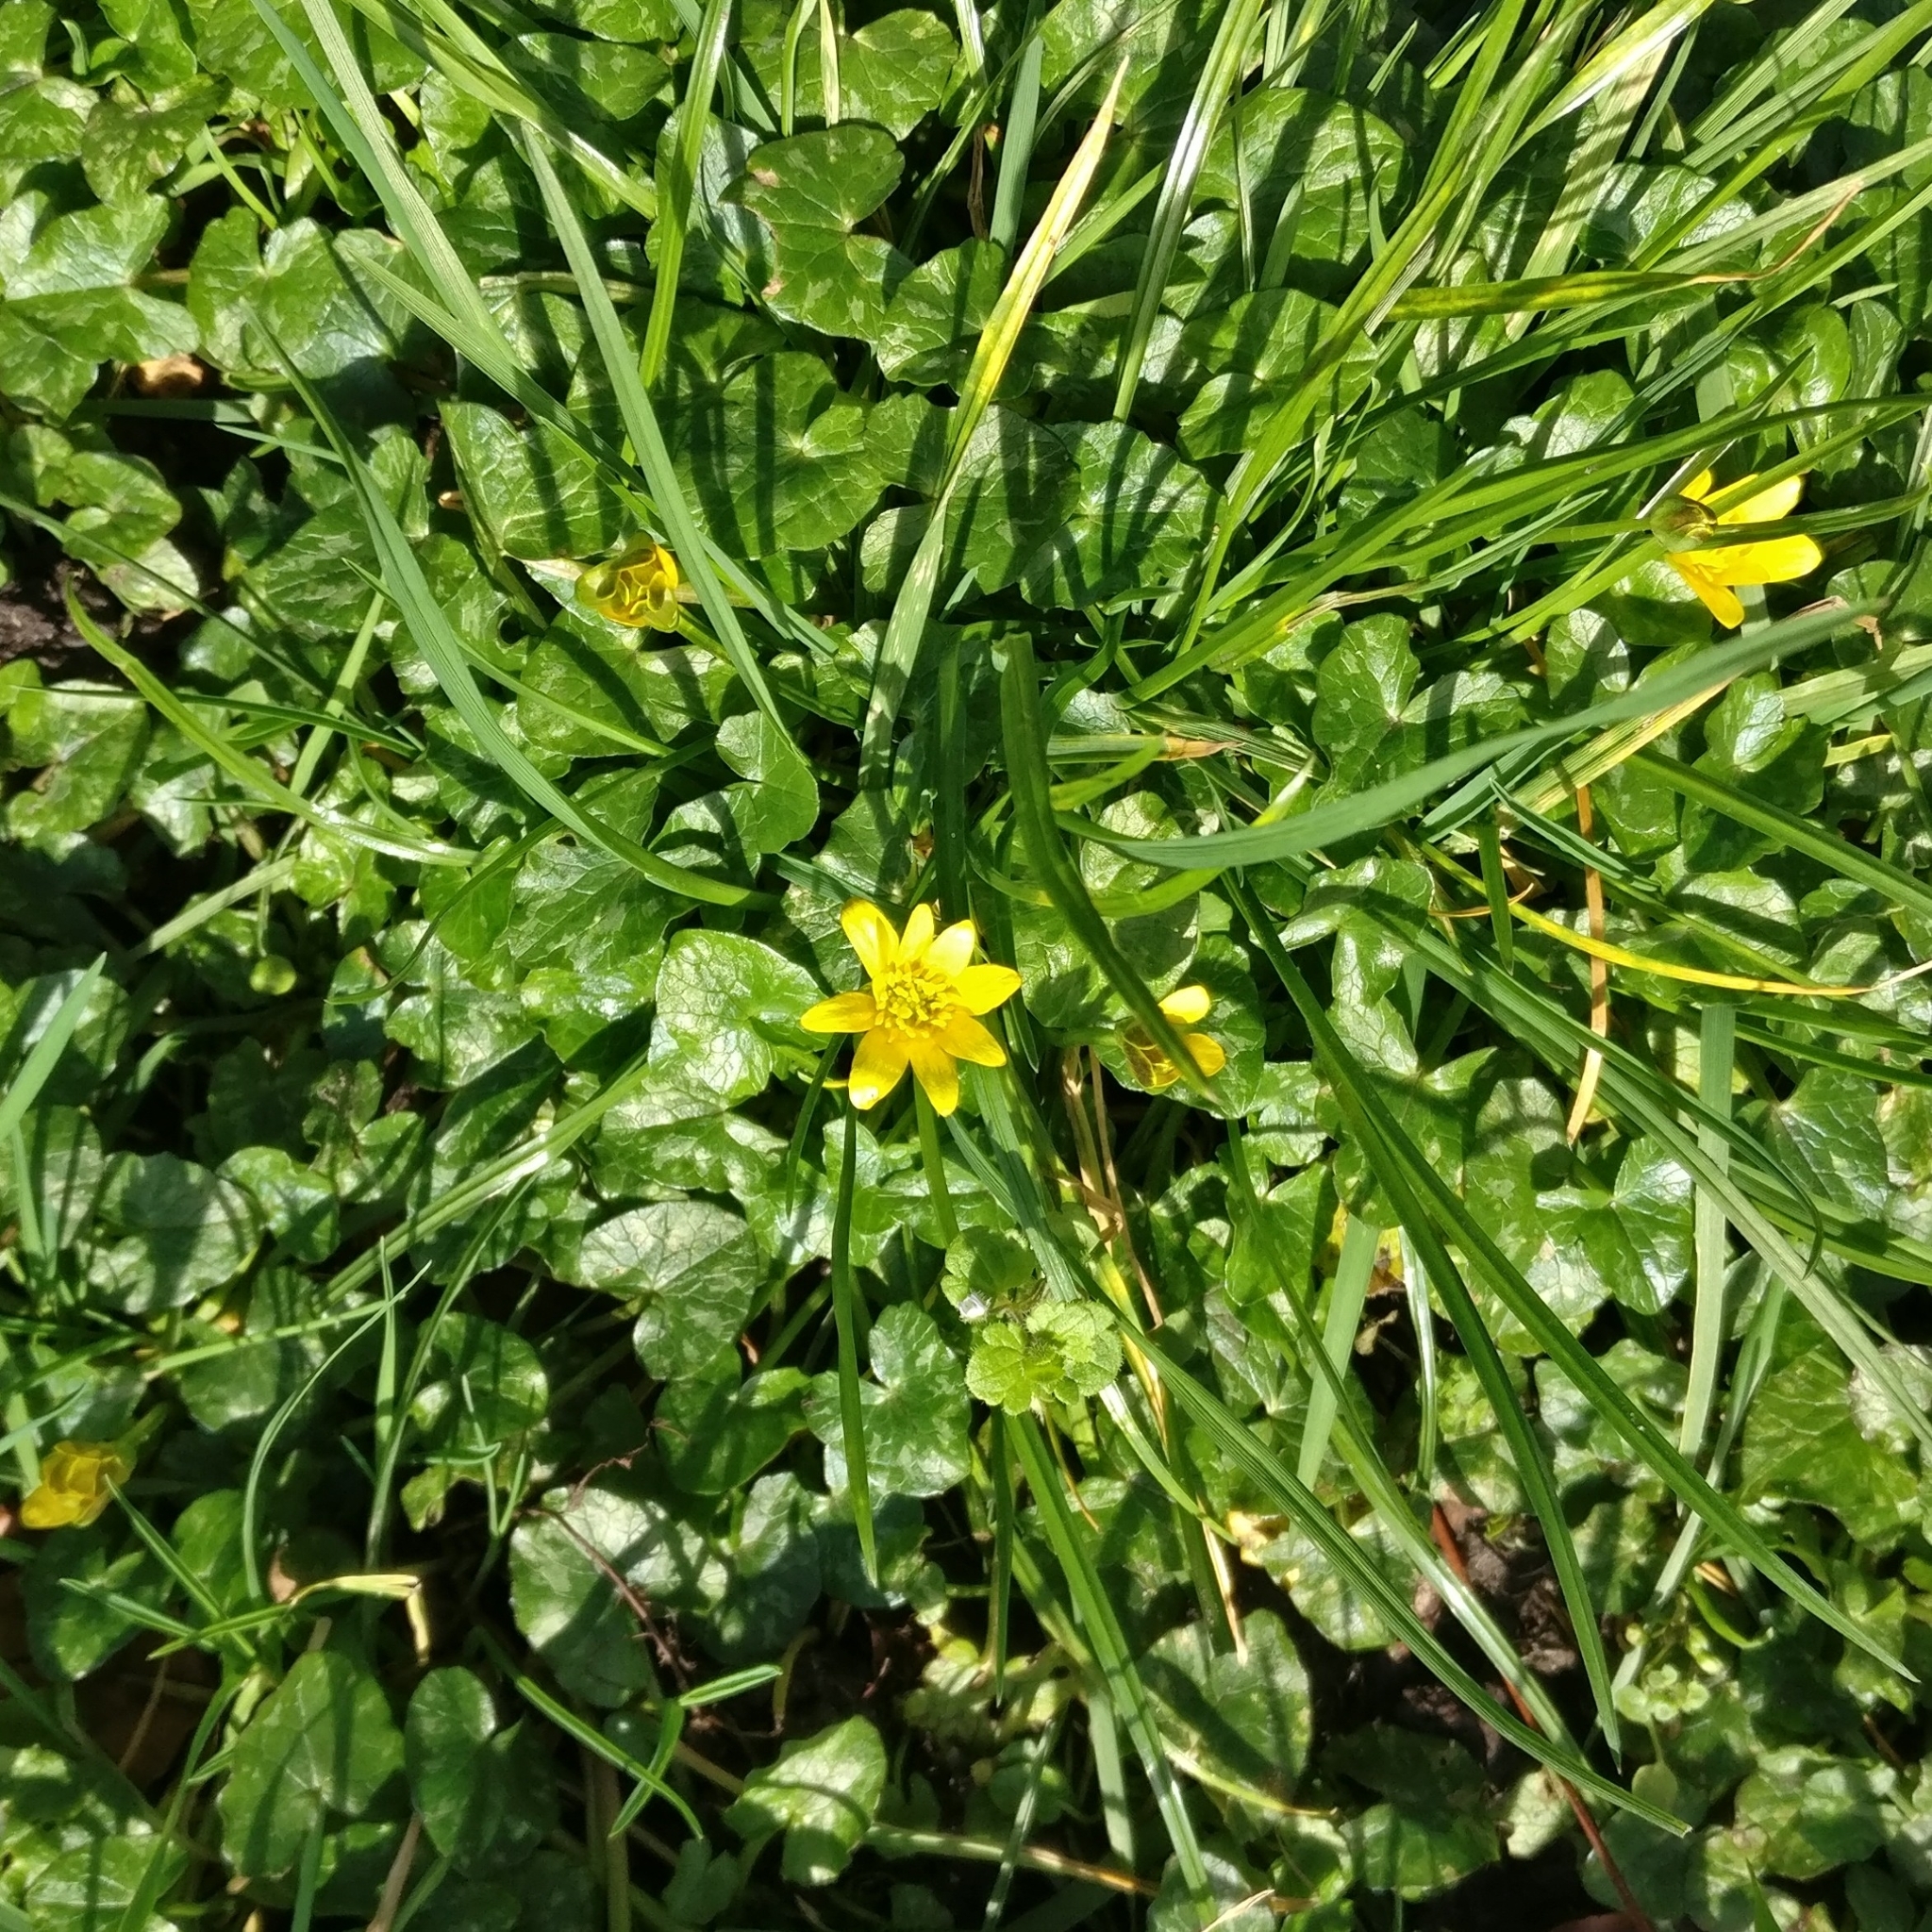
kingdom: Plantae
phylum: Tracheophyta
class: Magnoliopsida
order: Ranunculales
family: Ranunculaceae
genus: Ficaria
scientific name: Ficaria verna
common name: Lesser celandine
